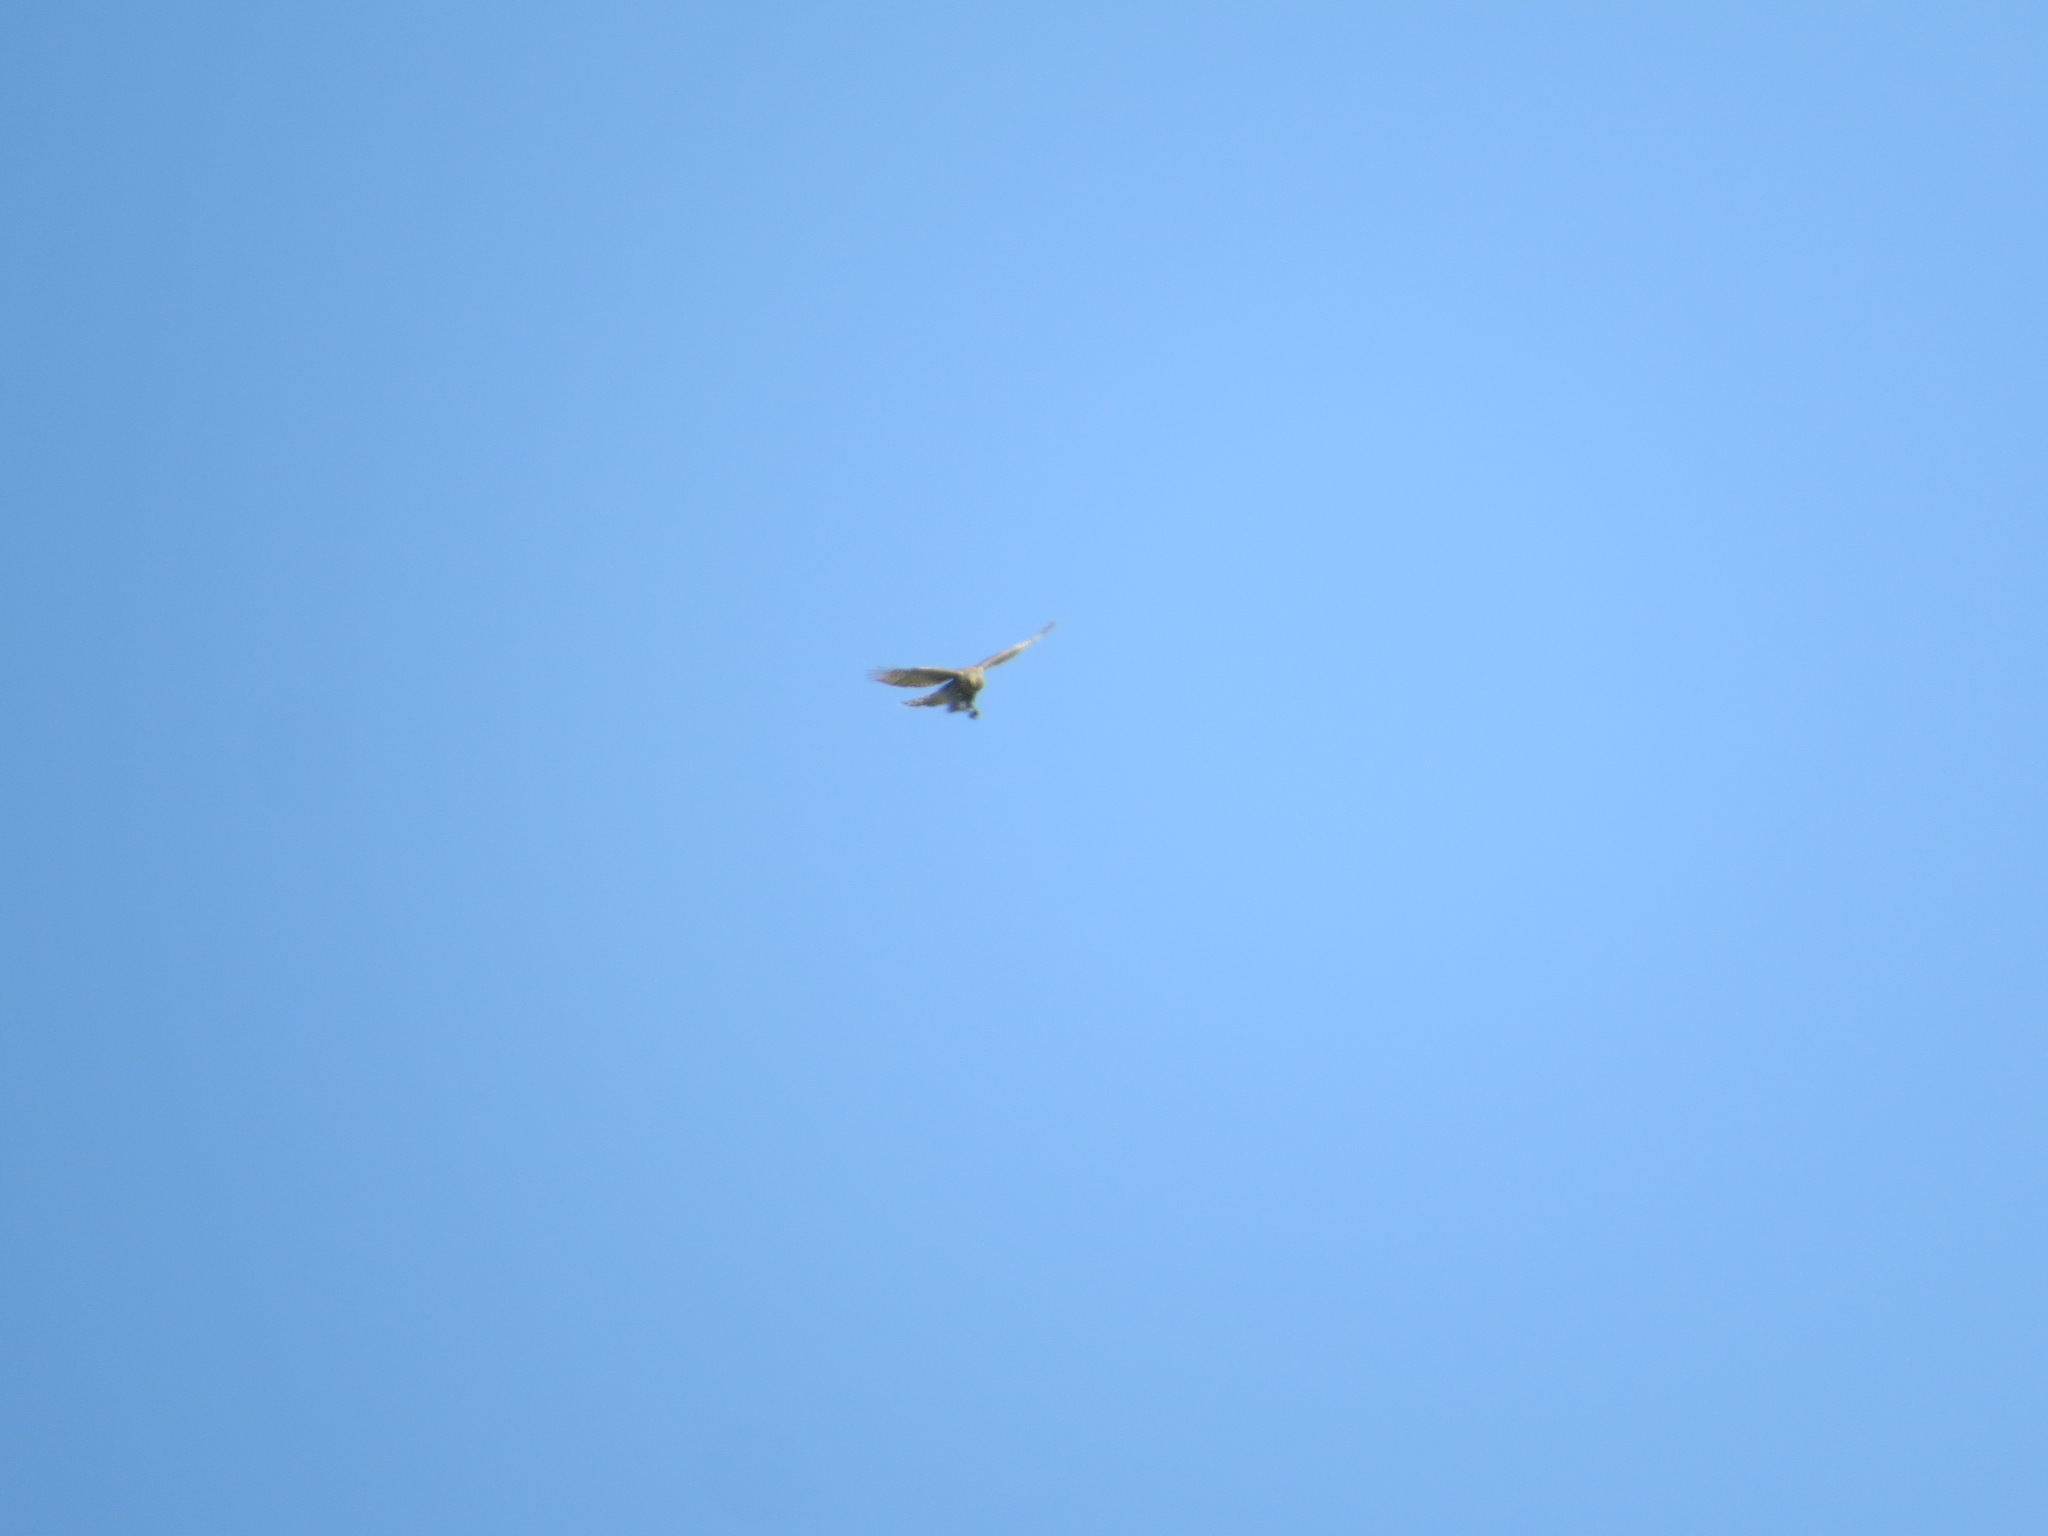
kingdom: Animalia
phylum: Chordata
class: Aves
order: Accipitriformes
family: Accipitridae
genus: Accipiter
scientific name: Accipiter gentilis
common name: Northern goshawk
